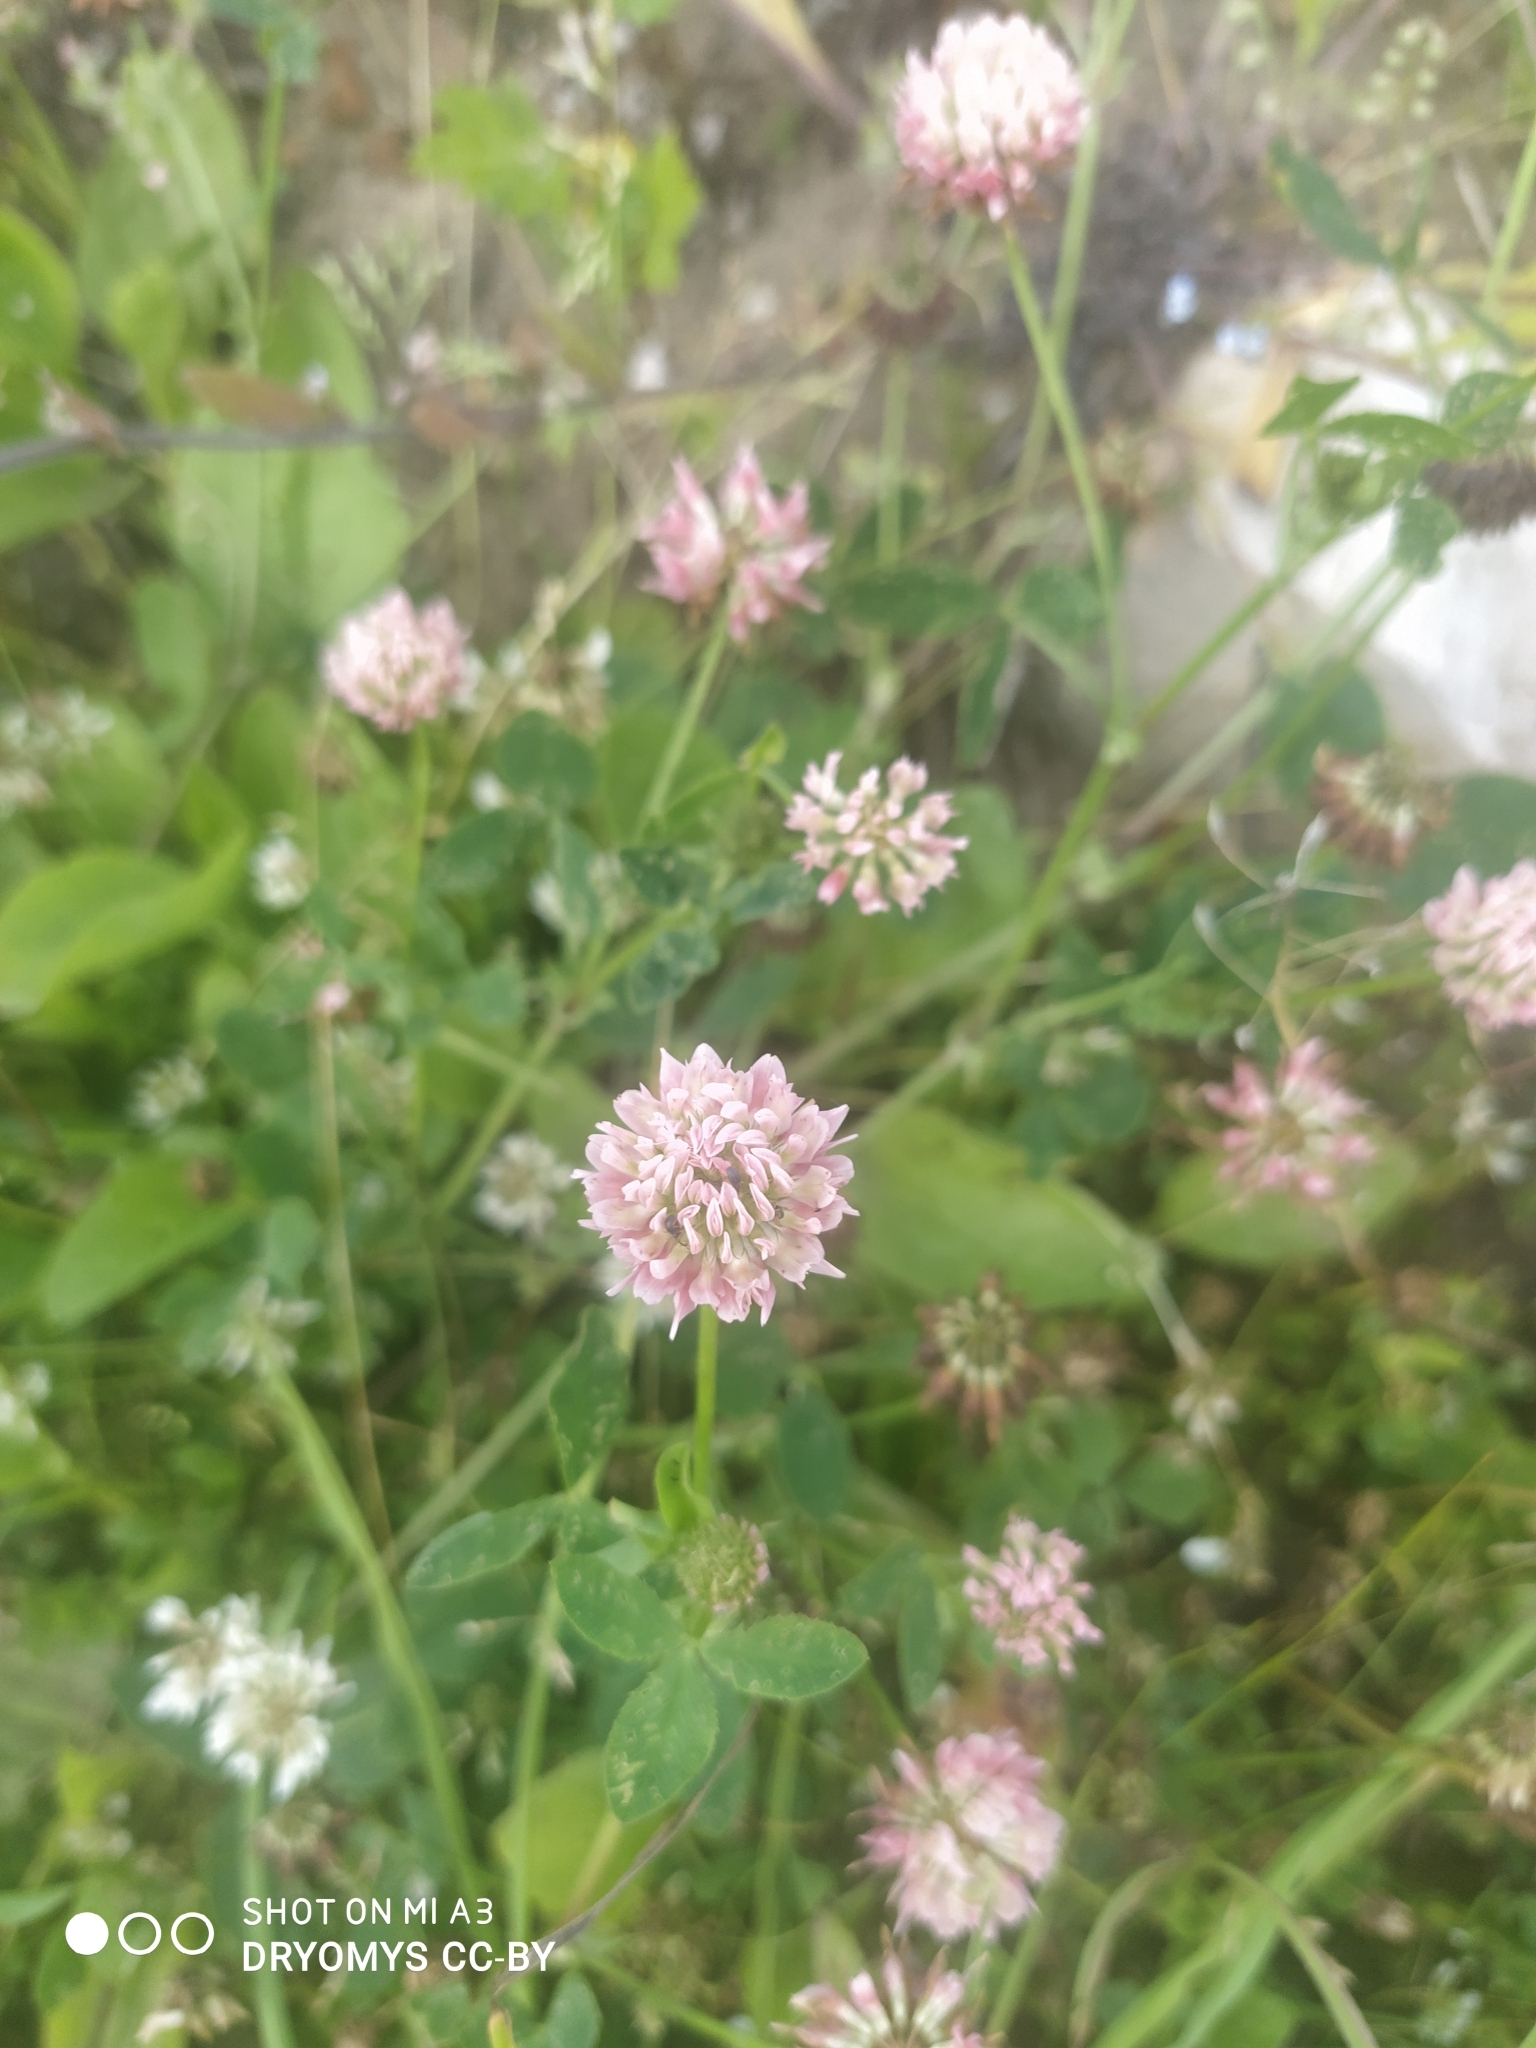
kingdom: Plantae
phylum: Tracheophyta
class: Magnoliopsida
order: Fabales
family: Fabaceae
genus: Trifolium
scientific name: Trifolium hybridum
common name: Alsike clover
